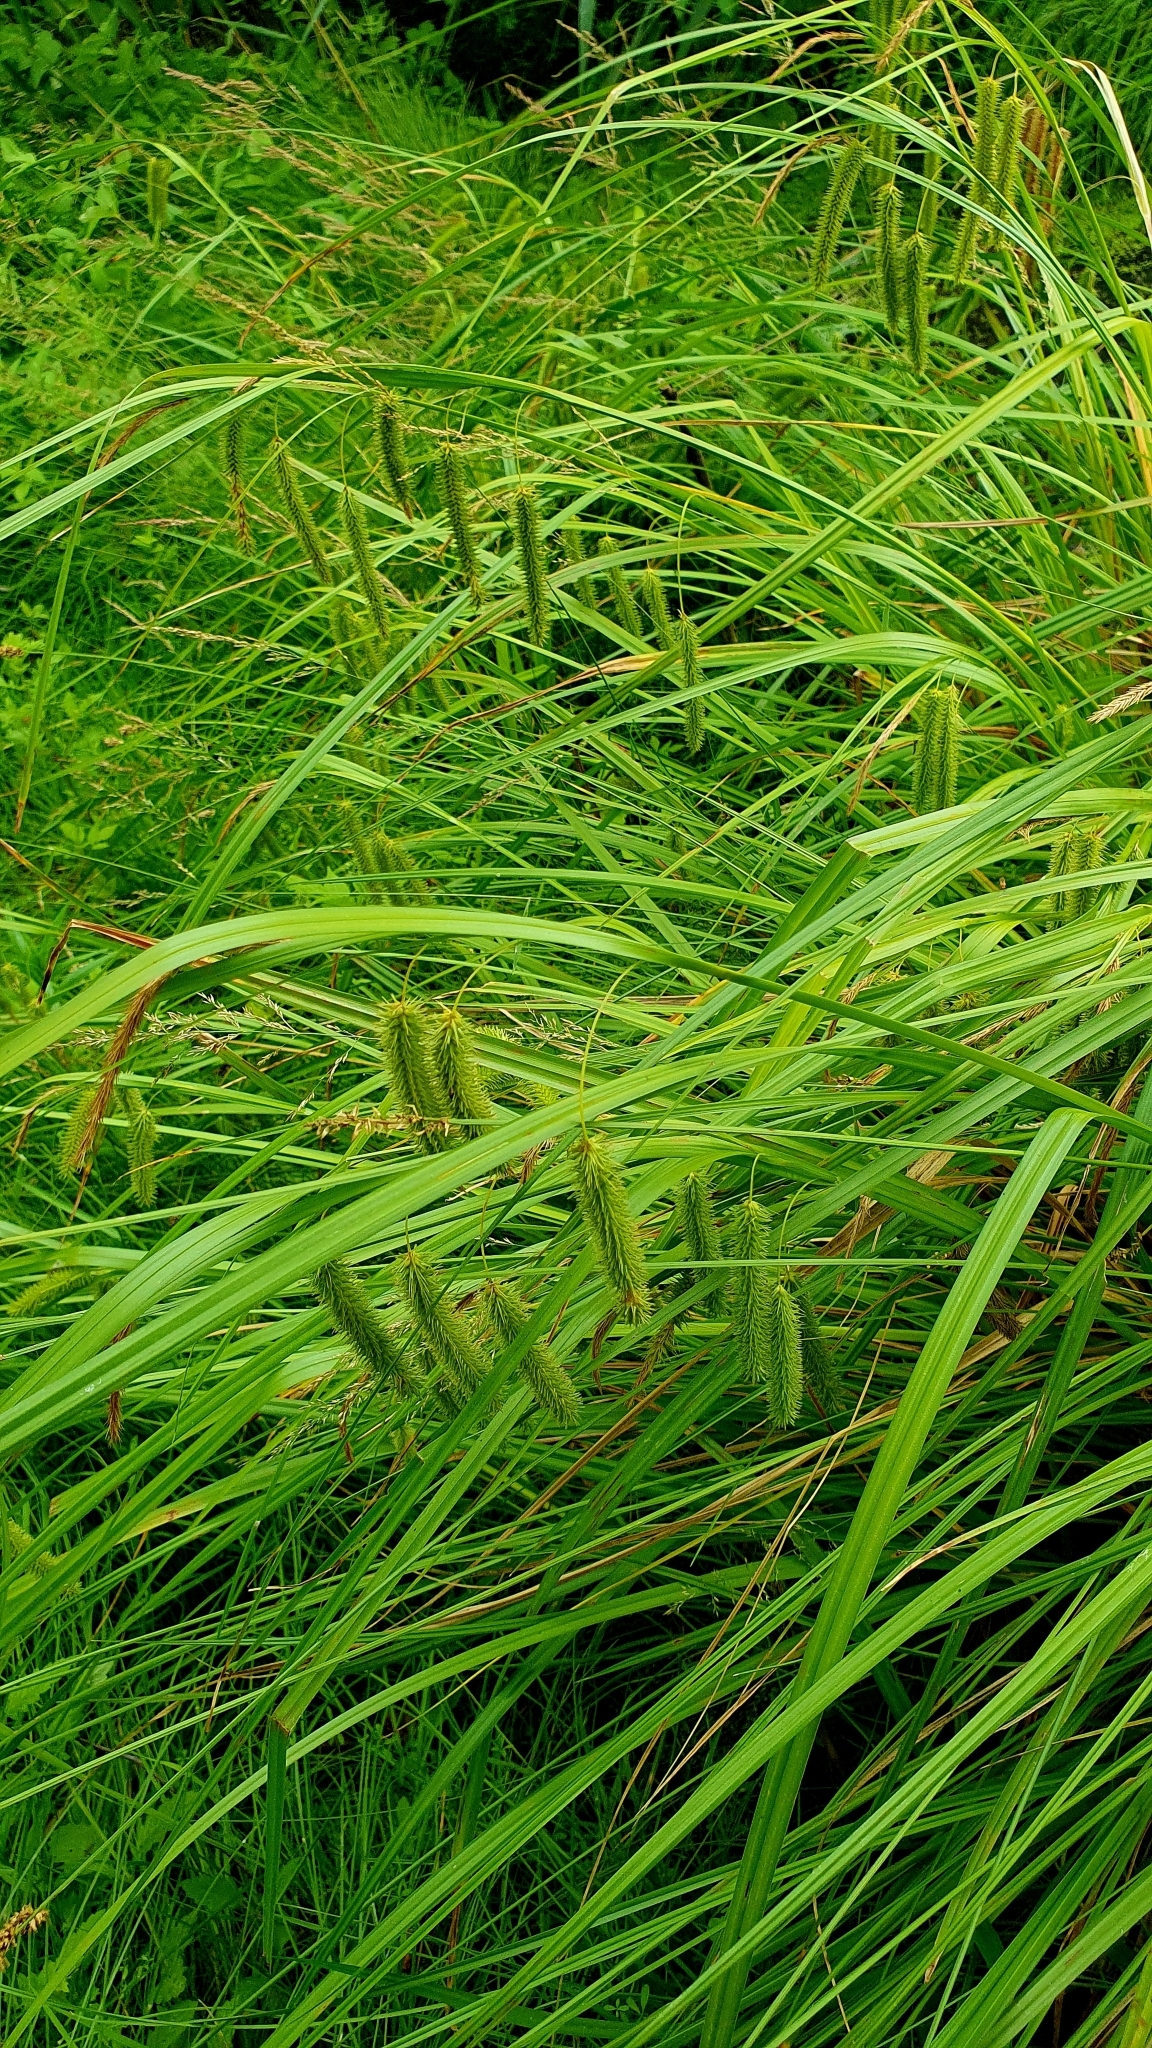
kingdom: Plantae
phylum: Tracheophyta
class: Liliopsida
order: Poales
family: Cyperaceae
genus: Carex
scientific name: Carex pseudocyperus
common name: Cyperus sedge
